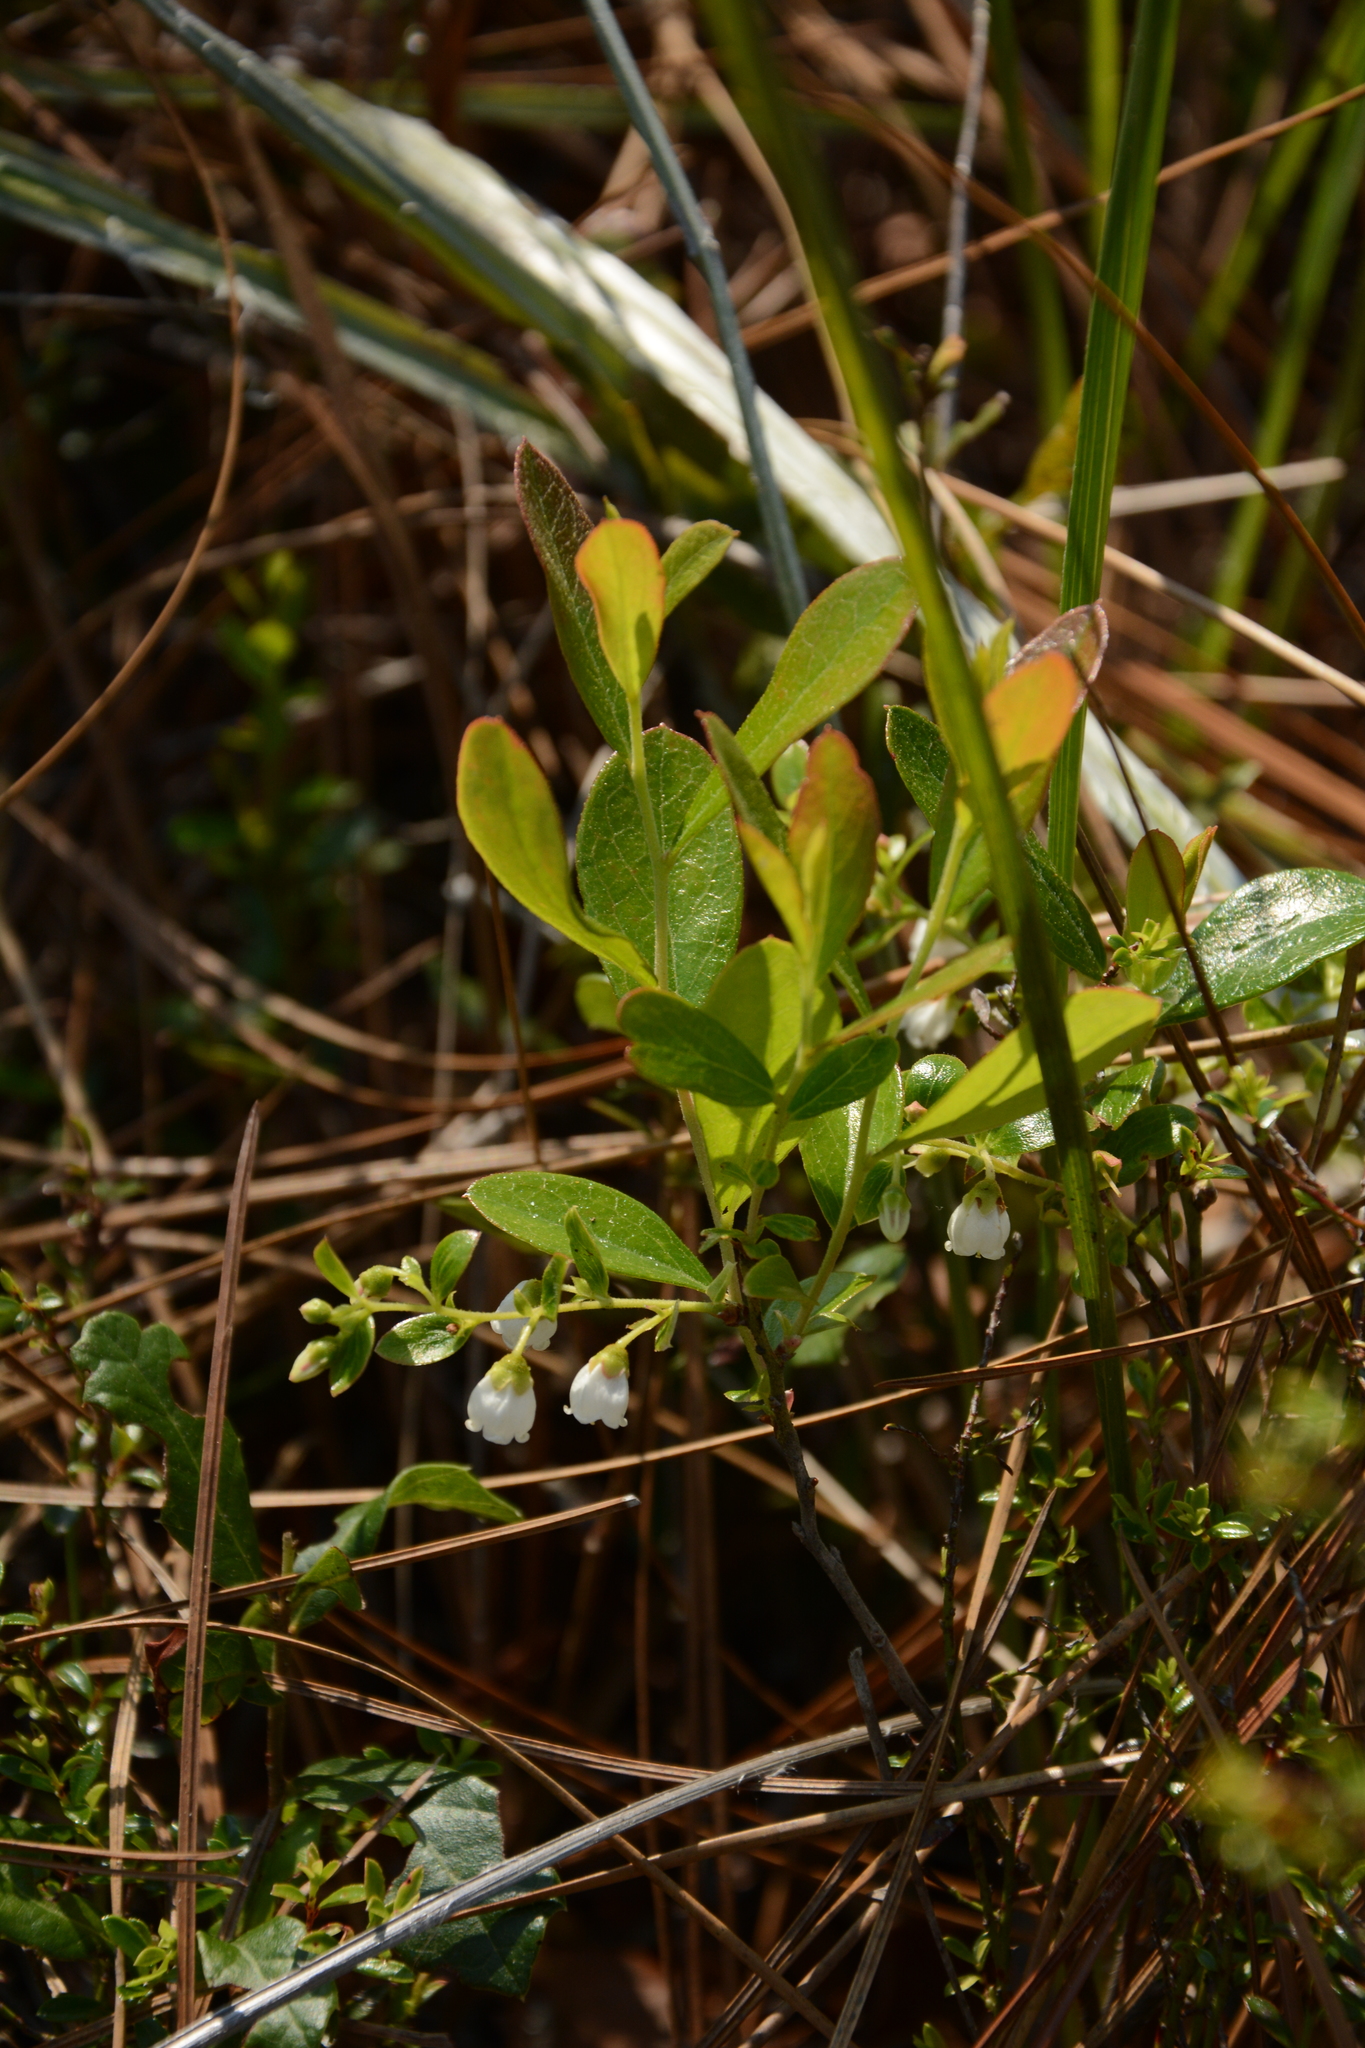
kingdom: Plantae
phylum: Tracheophyta
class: Magnoliopsida
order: Ericales
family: Ericaceae
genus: Gaylussacia
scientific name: Gaylussacia dumosa
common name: Dwarf huckleberry
